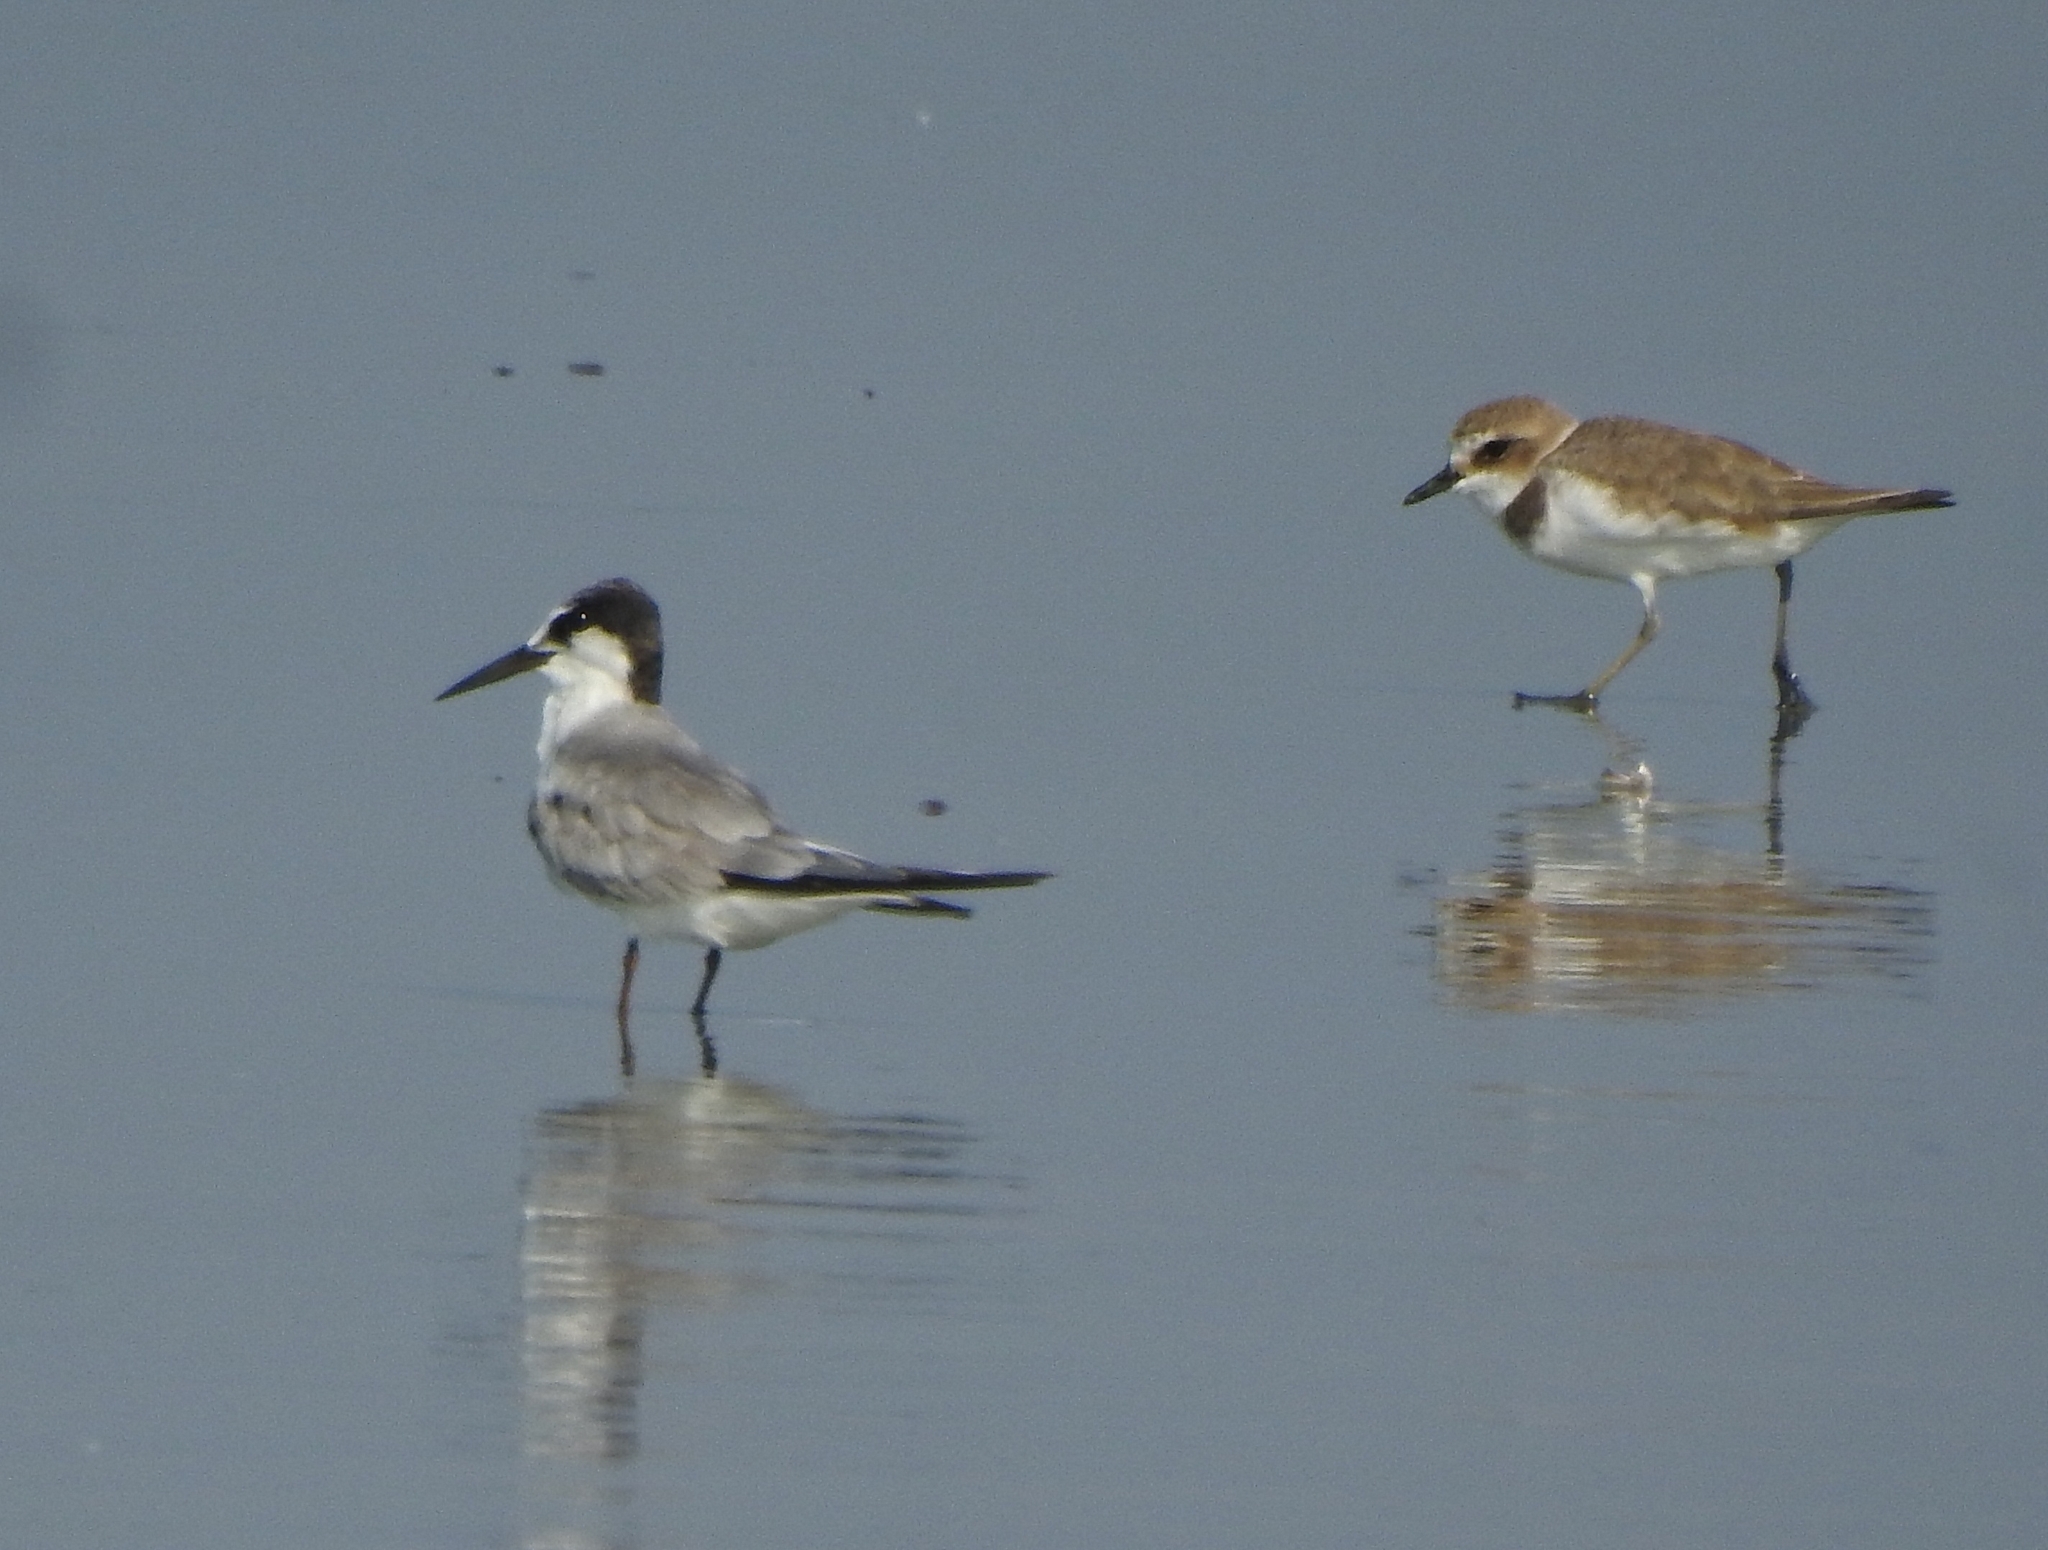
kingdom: Animalia
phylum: Chordata
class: Aves
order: Charadriiformes
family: Laridae
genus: Sternula
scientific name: Sternula albifrons
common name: Little tern
